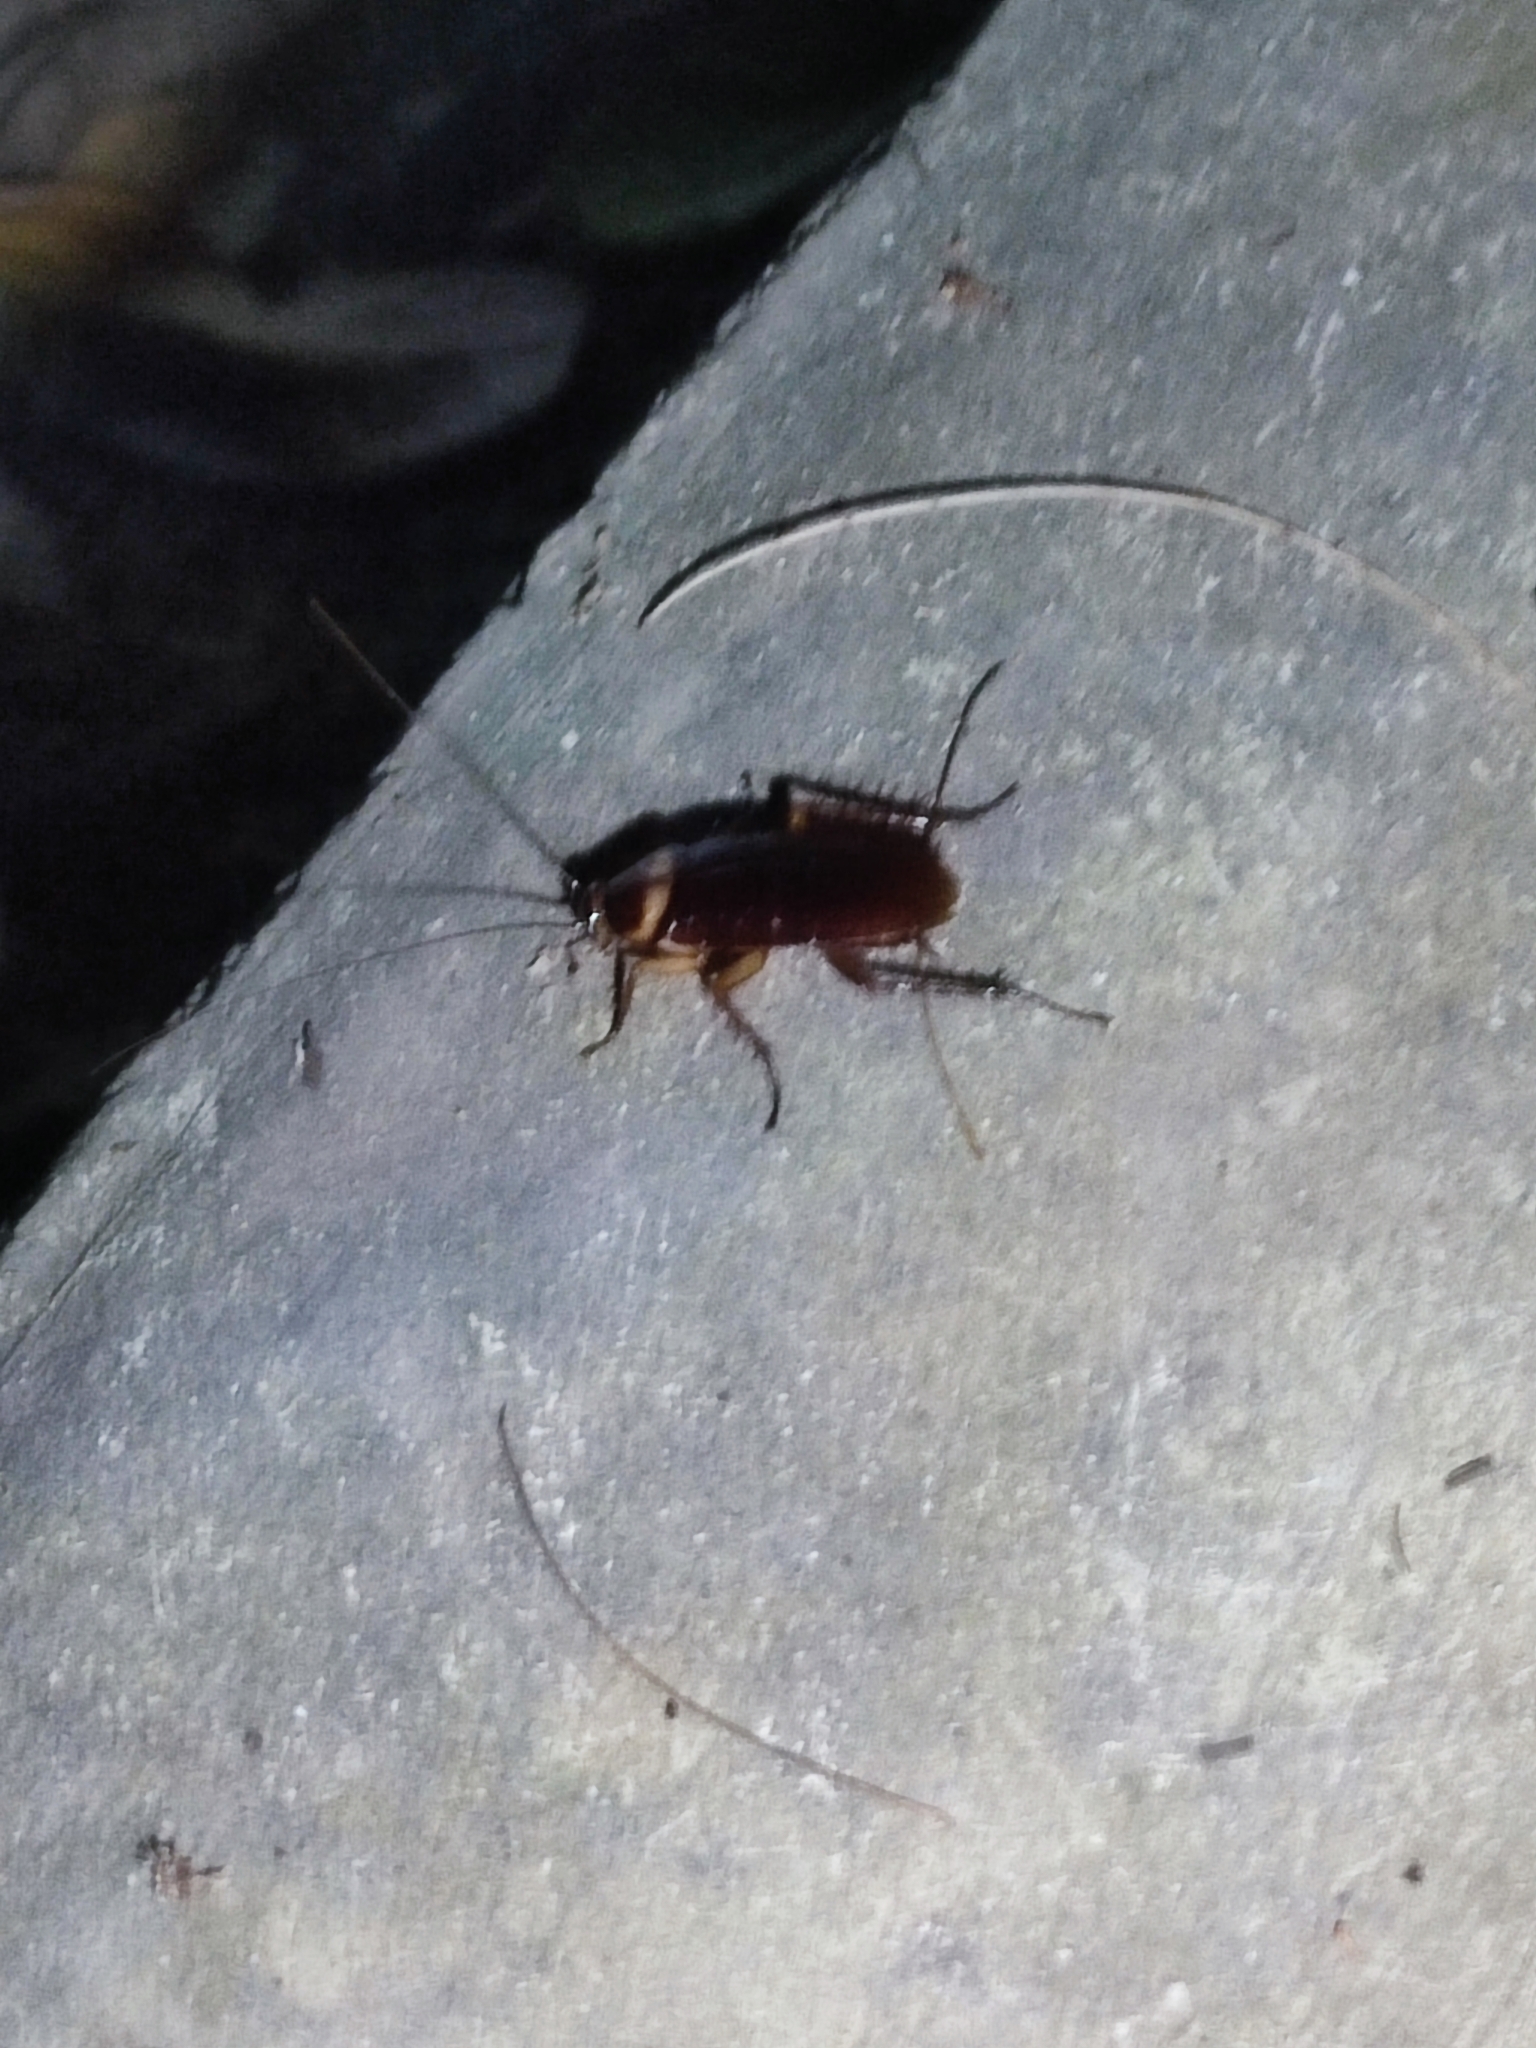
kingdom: Animalia
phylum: Arthropoda
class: Insecta
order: Blattodea
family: Blattidae
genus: Periplaneta
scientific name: Periplaneta americana
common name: American cockroach
